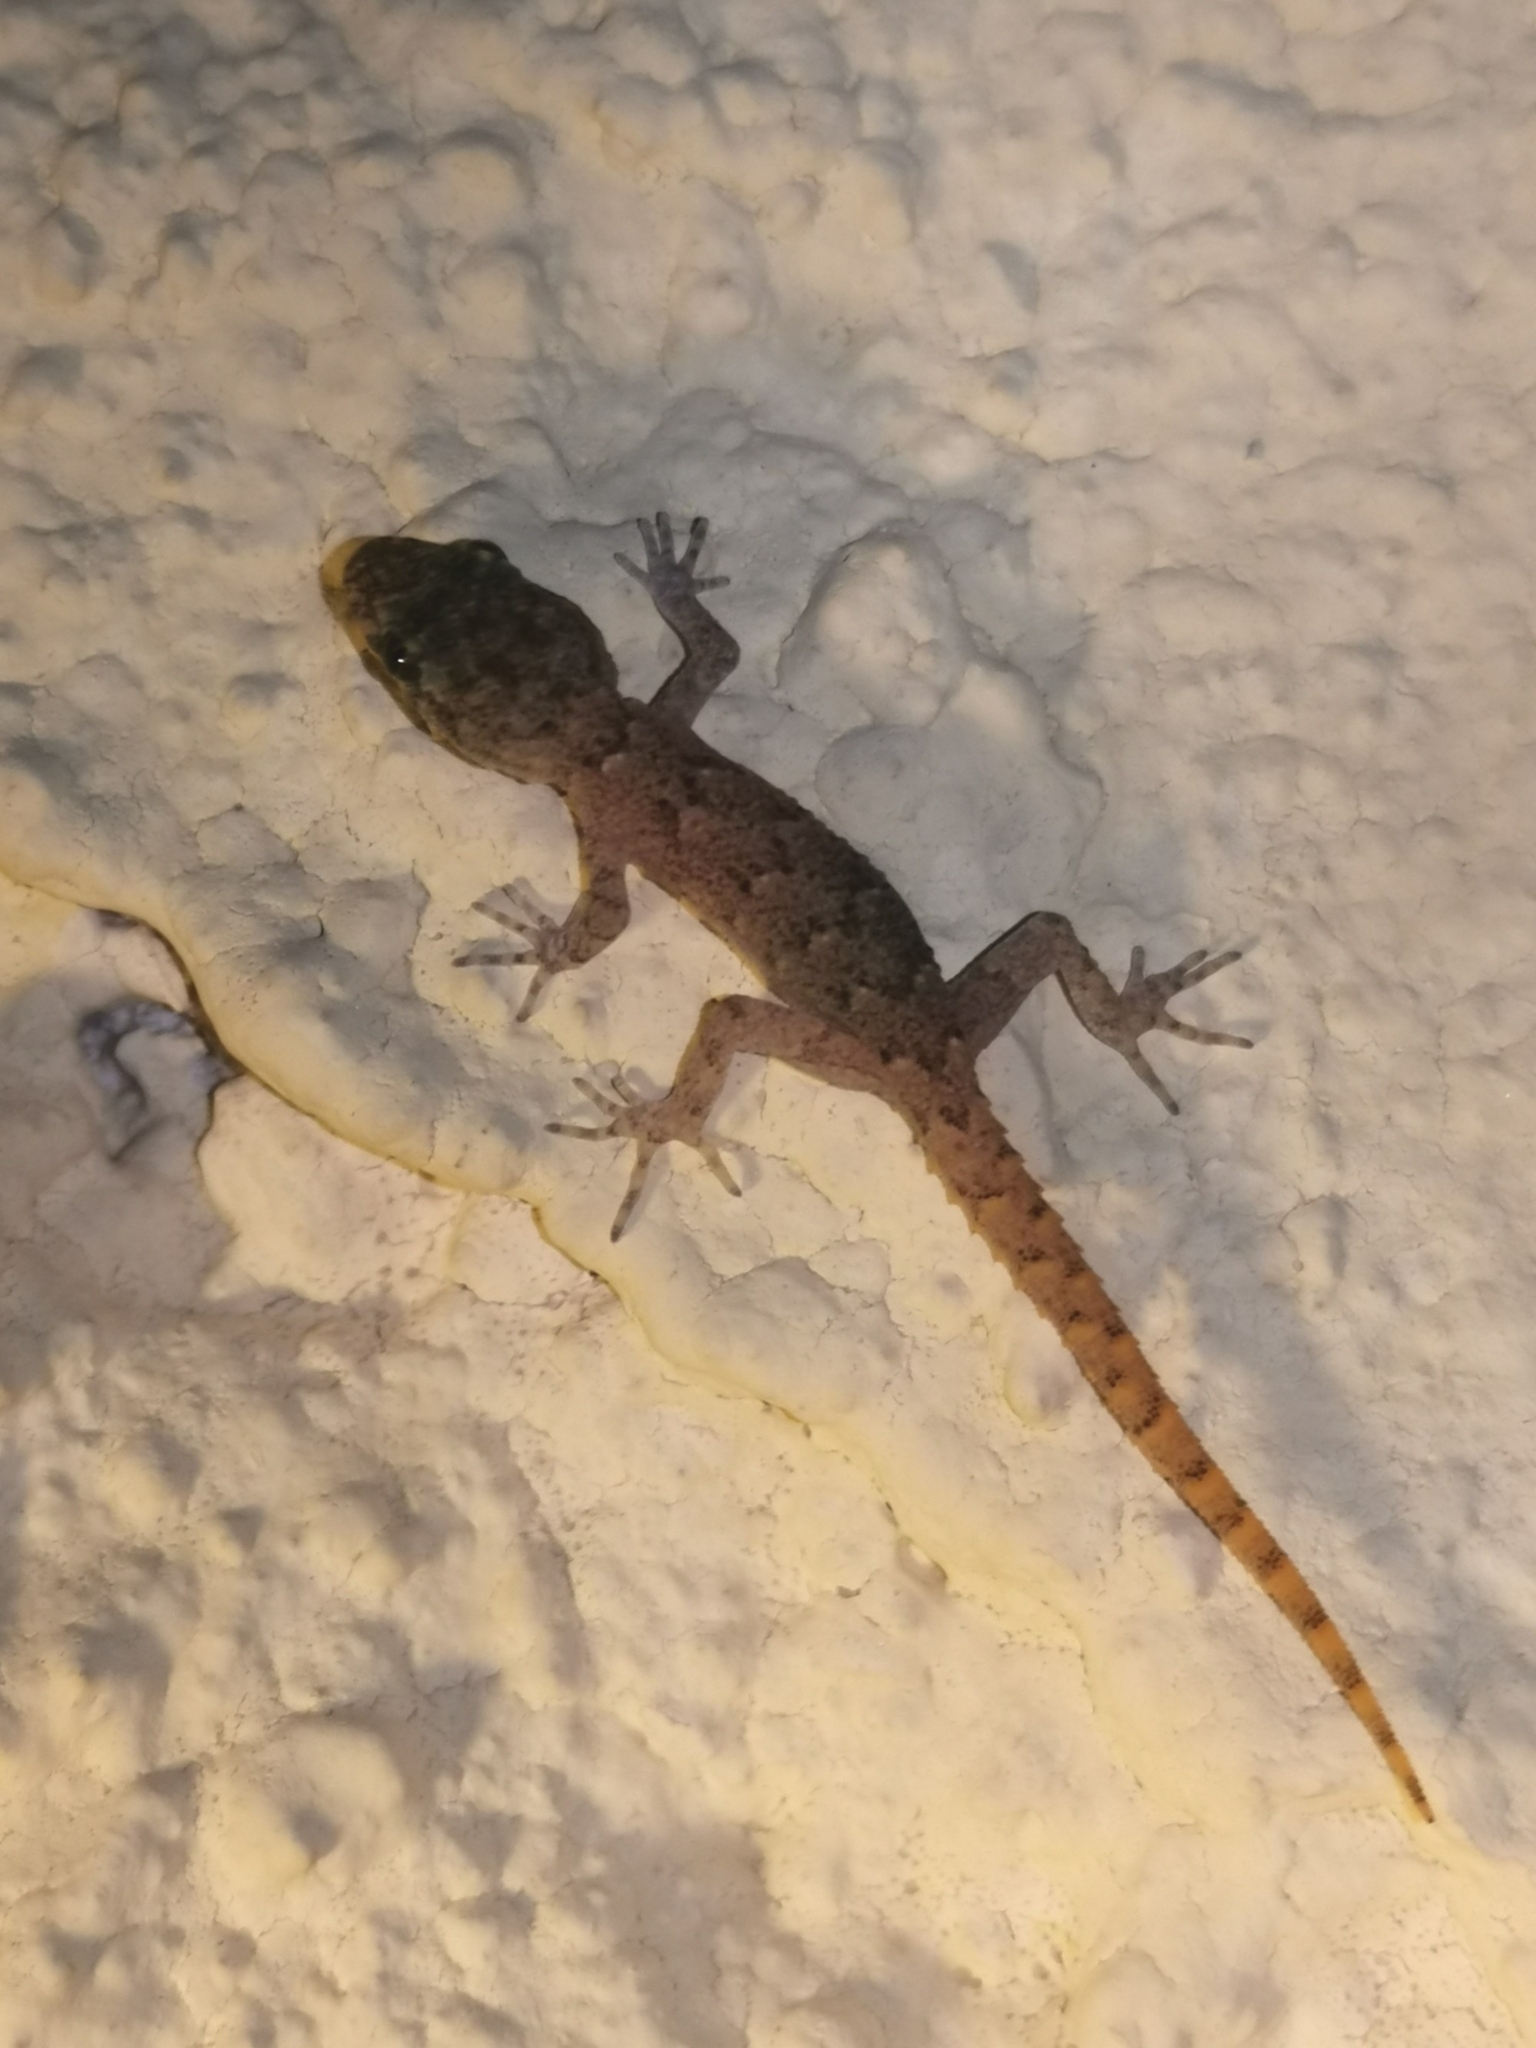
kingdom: Animalia
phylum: Chordata
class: Squamata
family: Gekkonidae
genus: Mediodactylus
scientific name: Mediodactylus kotschyi
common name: Kotschy's gecko
